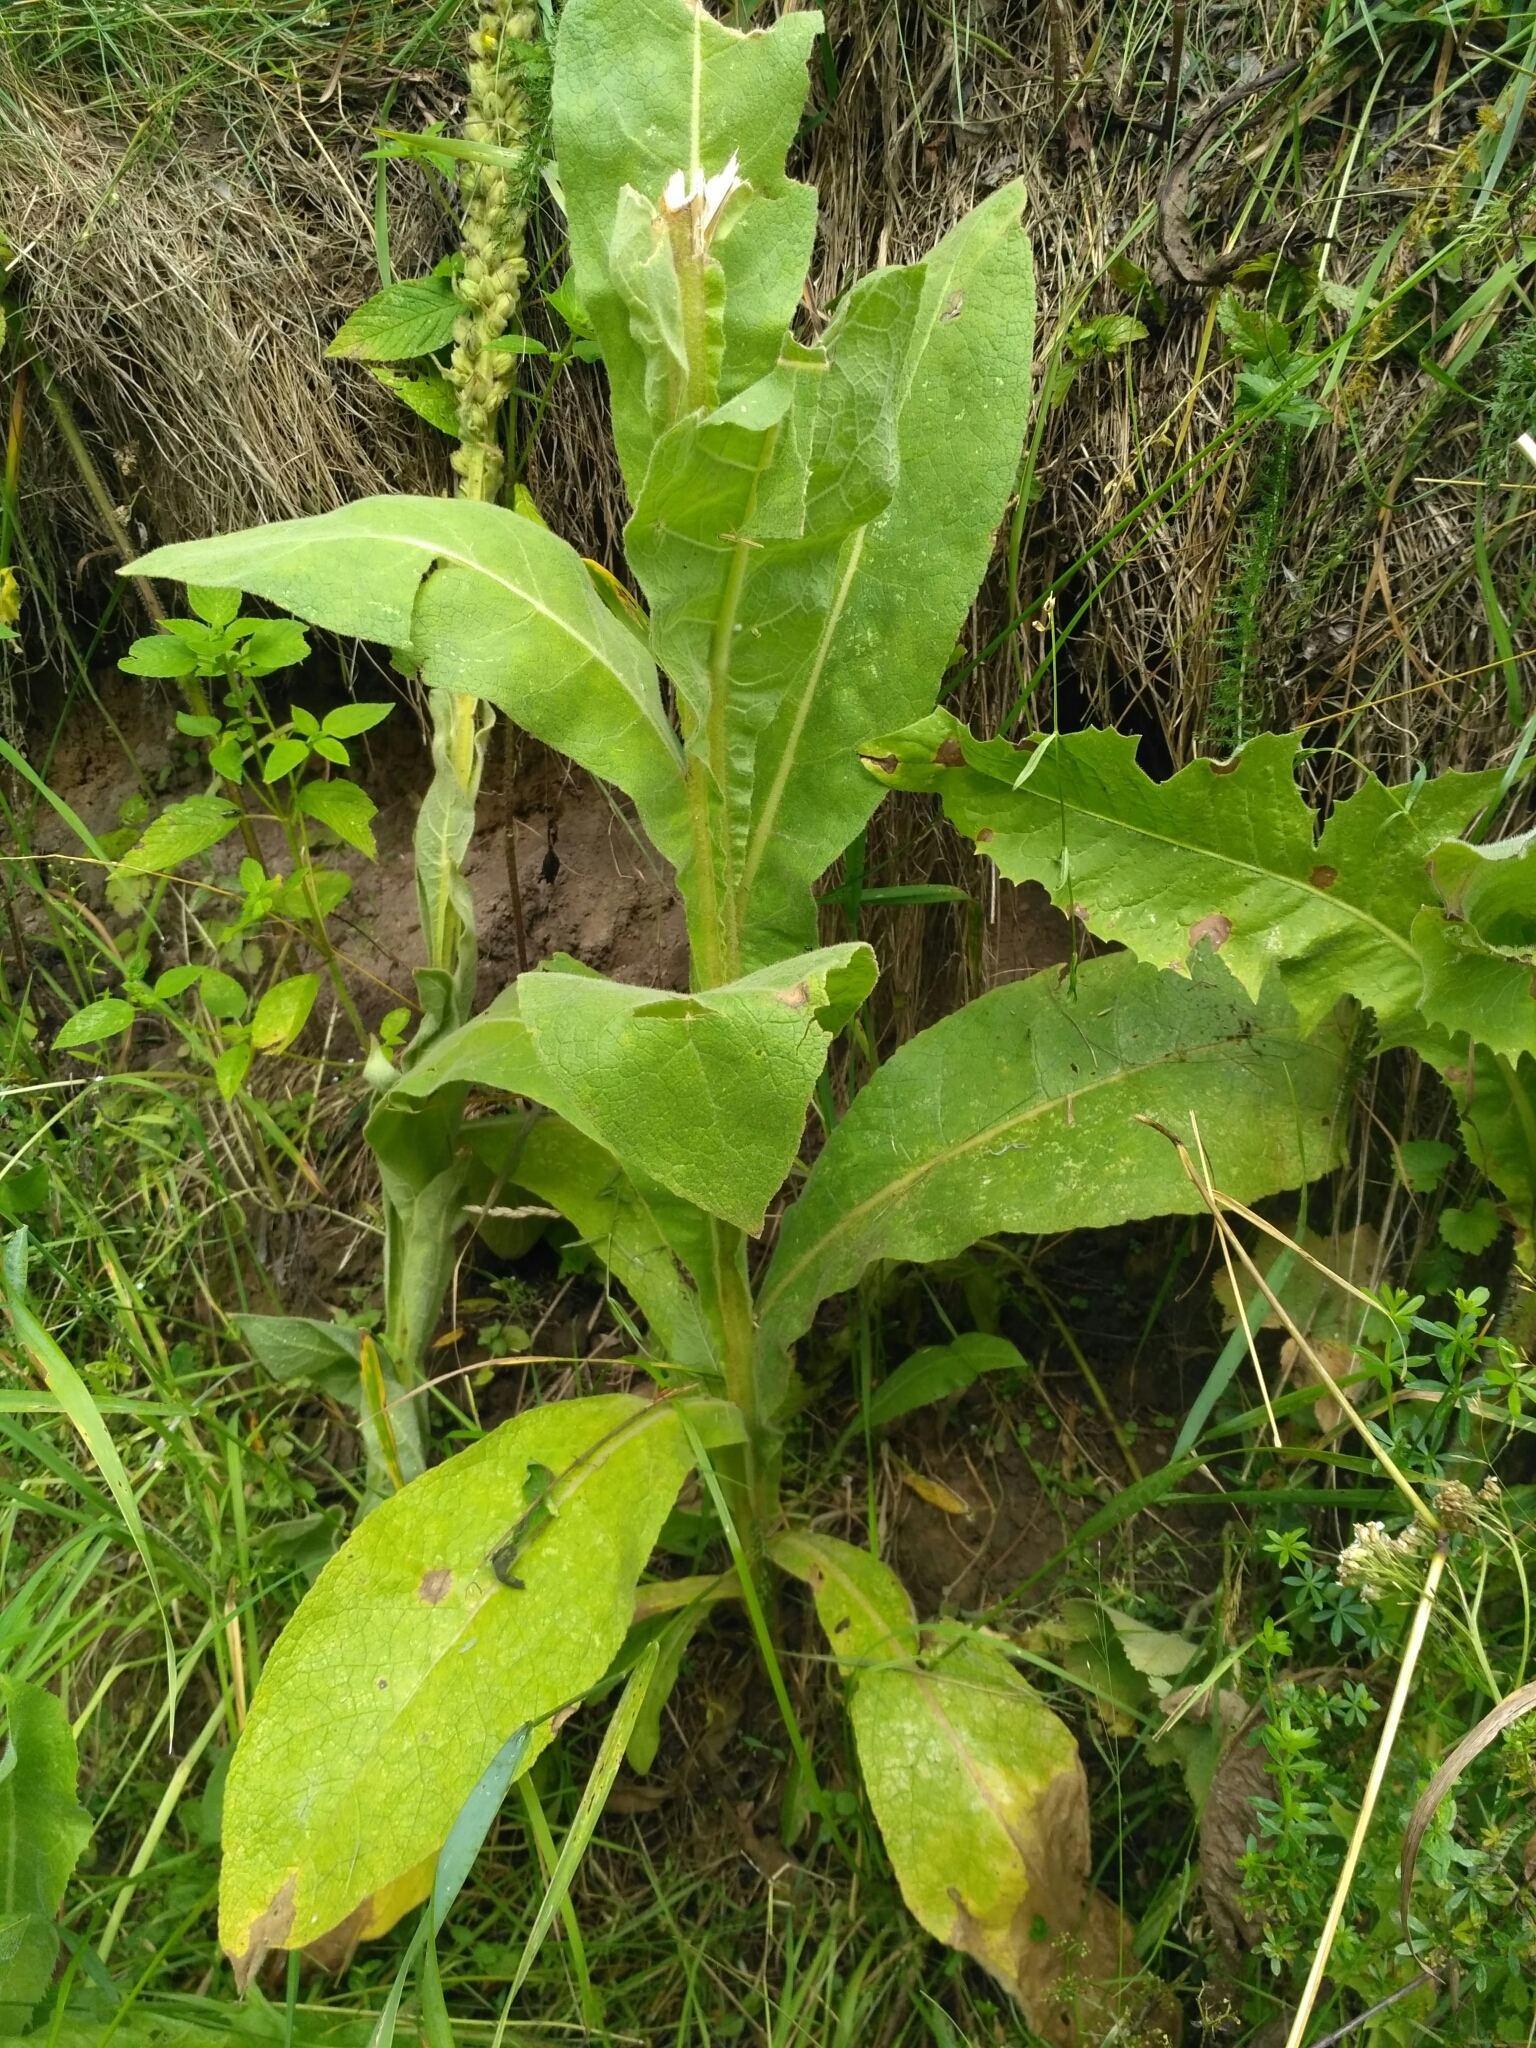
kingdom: Plantae
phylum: Tracheophyta
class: Magnoliopsida
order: Lamiales
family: Scrophulariaceae
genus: Verbascum
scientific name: Verbascum thapsus
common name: Common mullein
